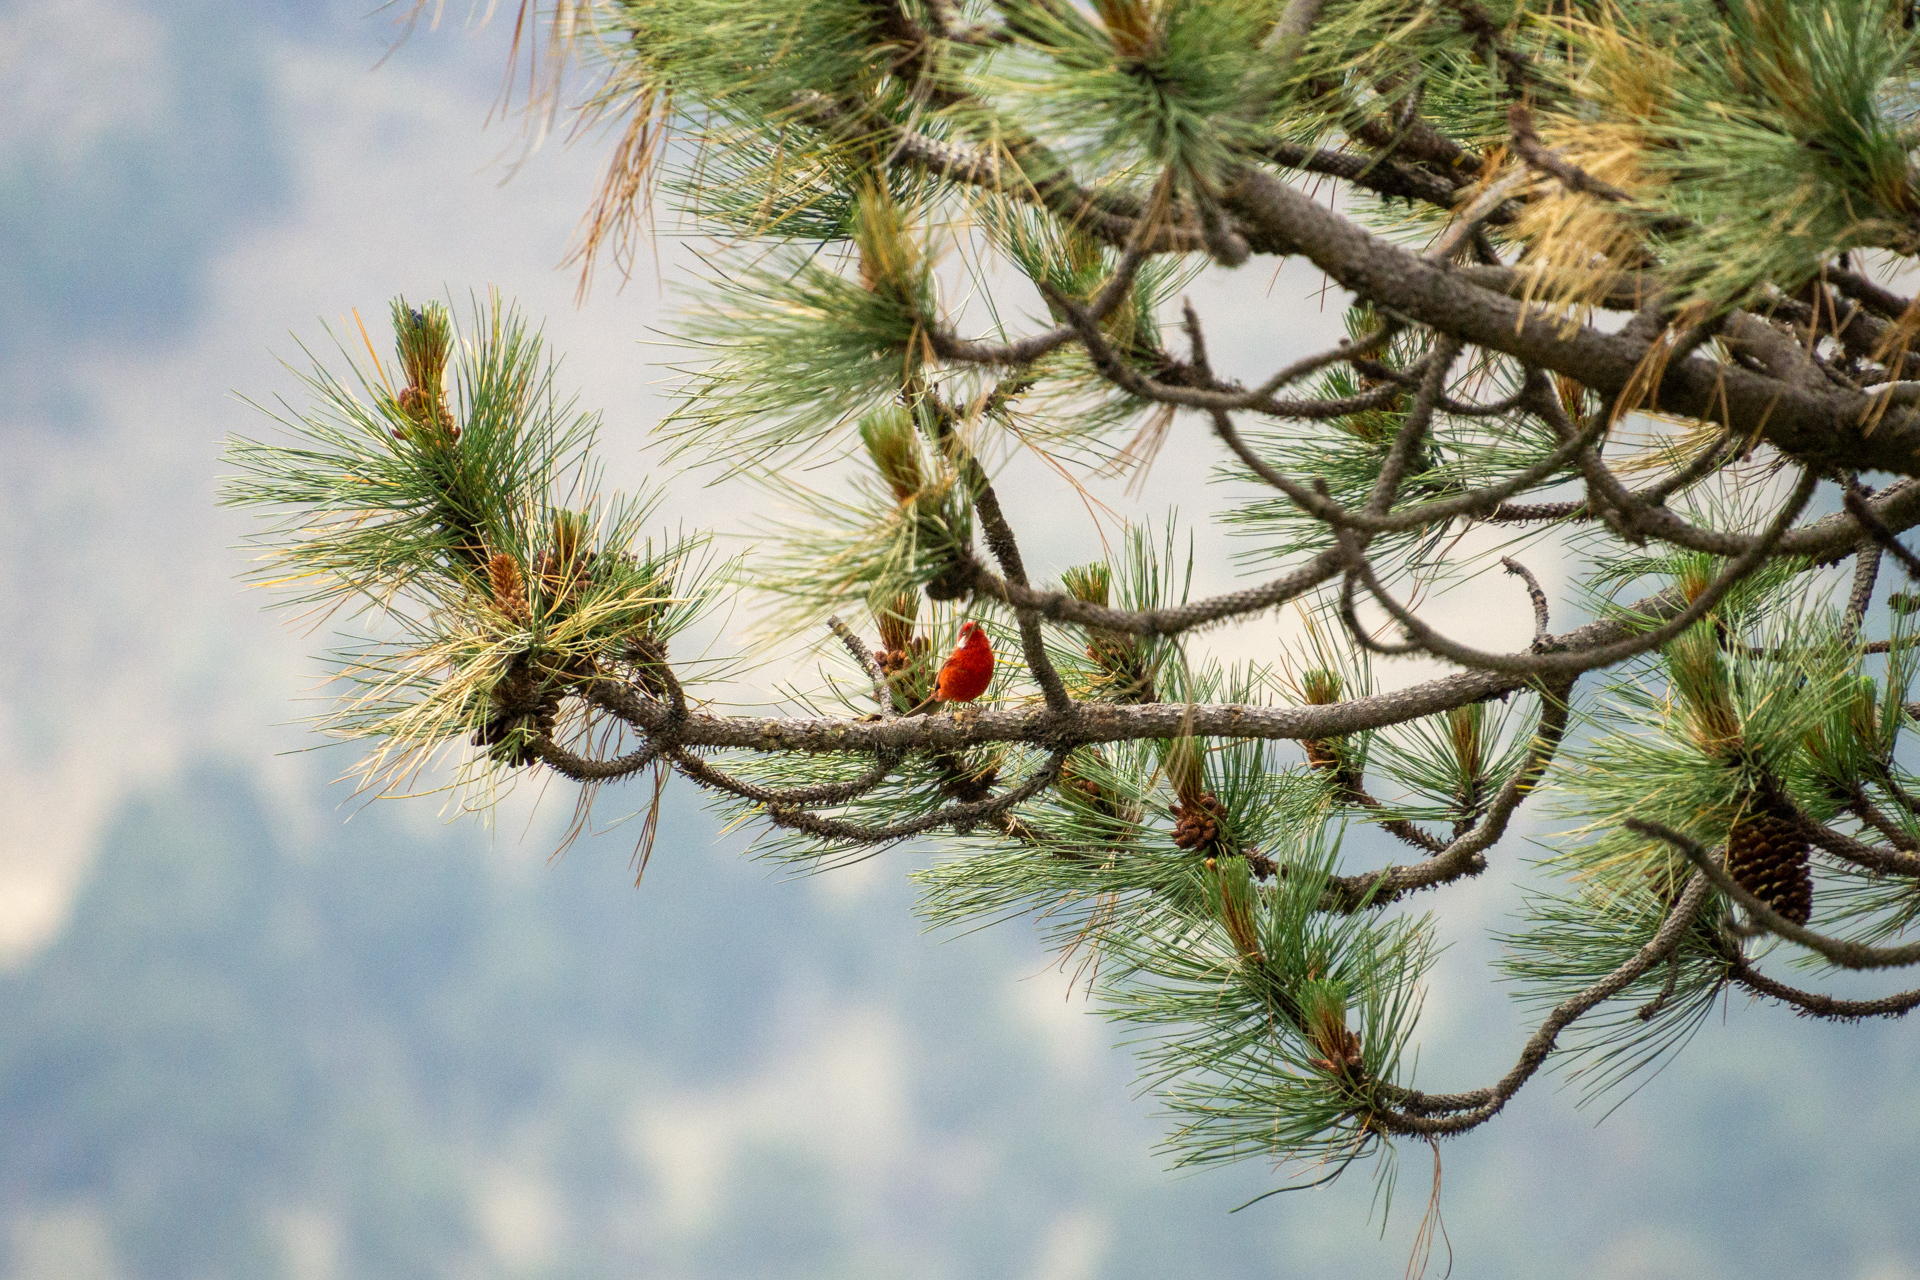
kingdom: Animalia
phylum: Chordata
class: Aves
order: Passeriformes
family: Parulidae
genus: Cardellina
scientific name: Cardellina rubra
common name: Red warbler
